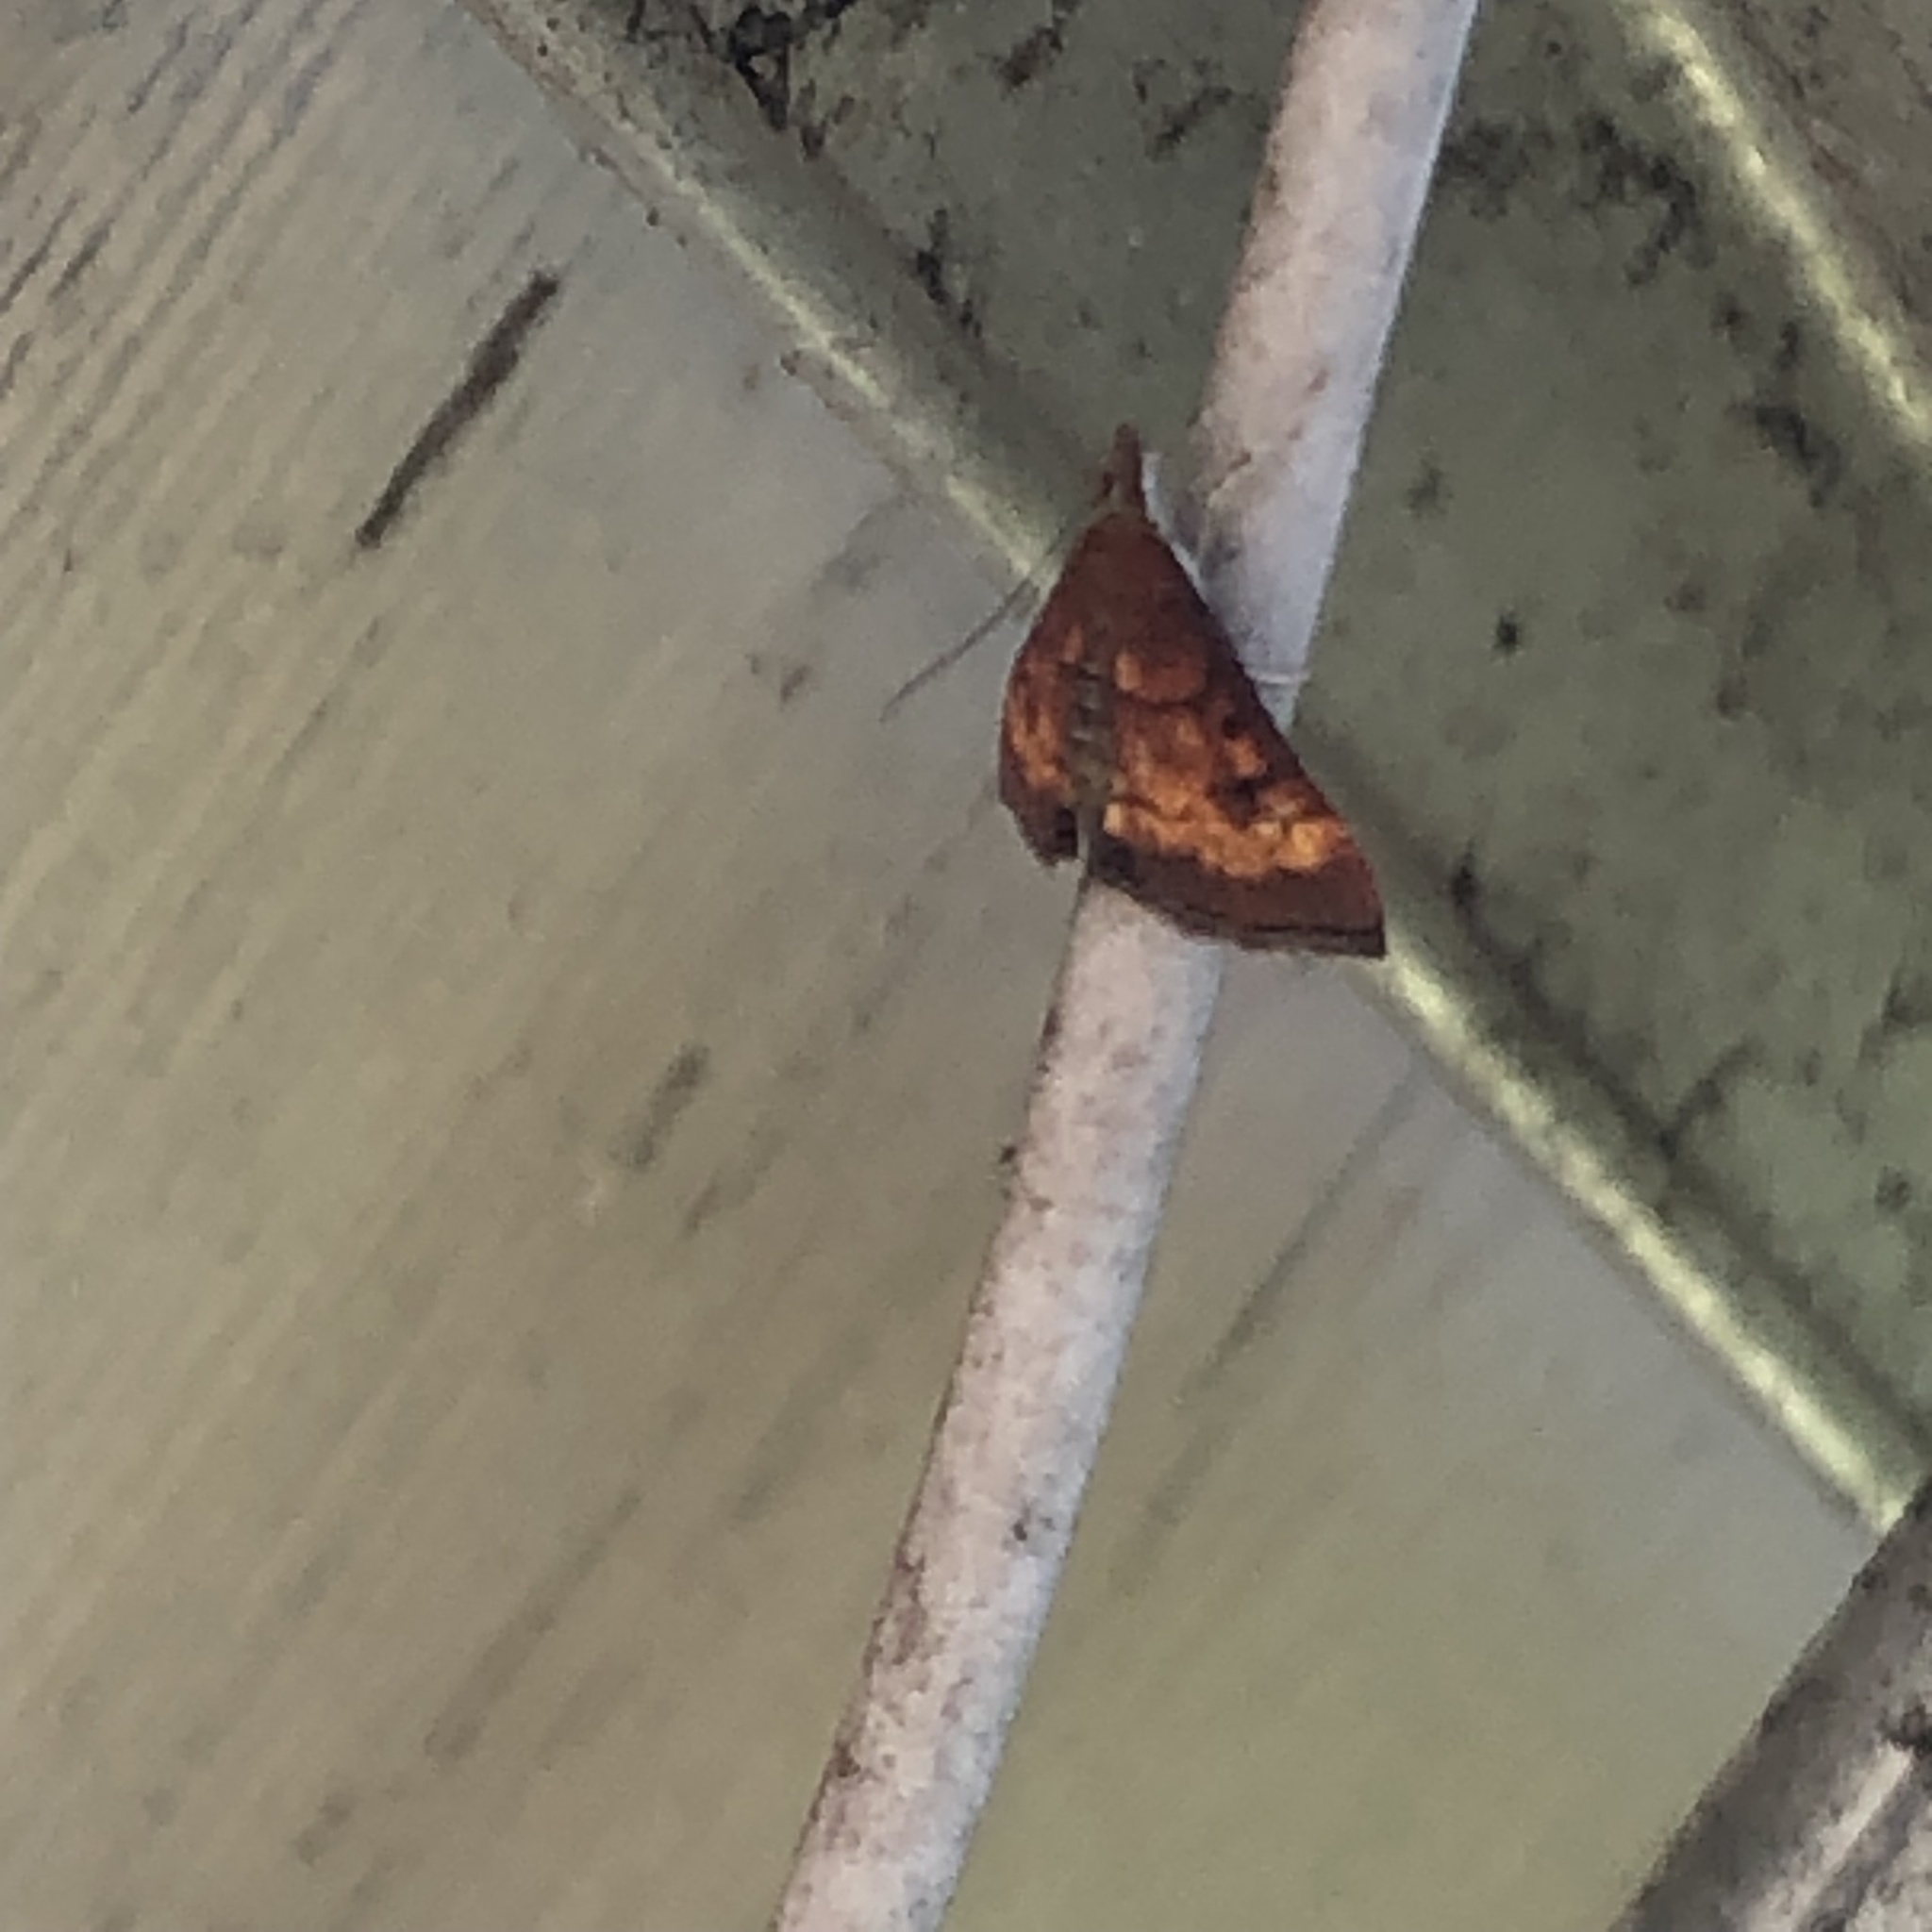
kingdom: Animalia
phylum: Arthropoda
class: Insecta
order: Lepidoptera
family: Crambidae
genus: Pyrausta
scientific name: Pyrausta californicalis
